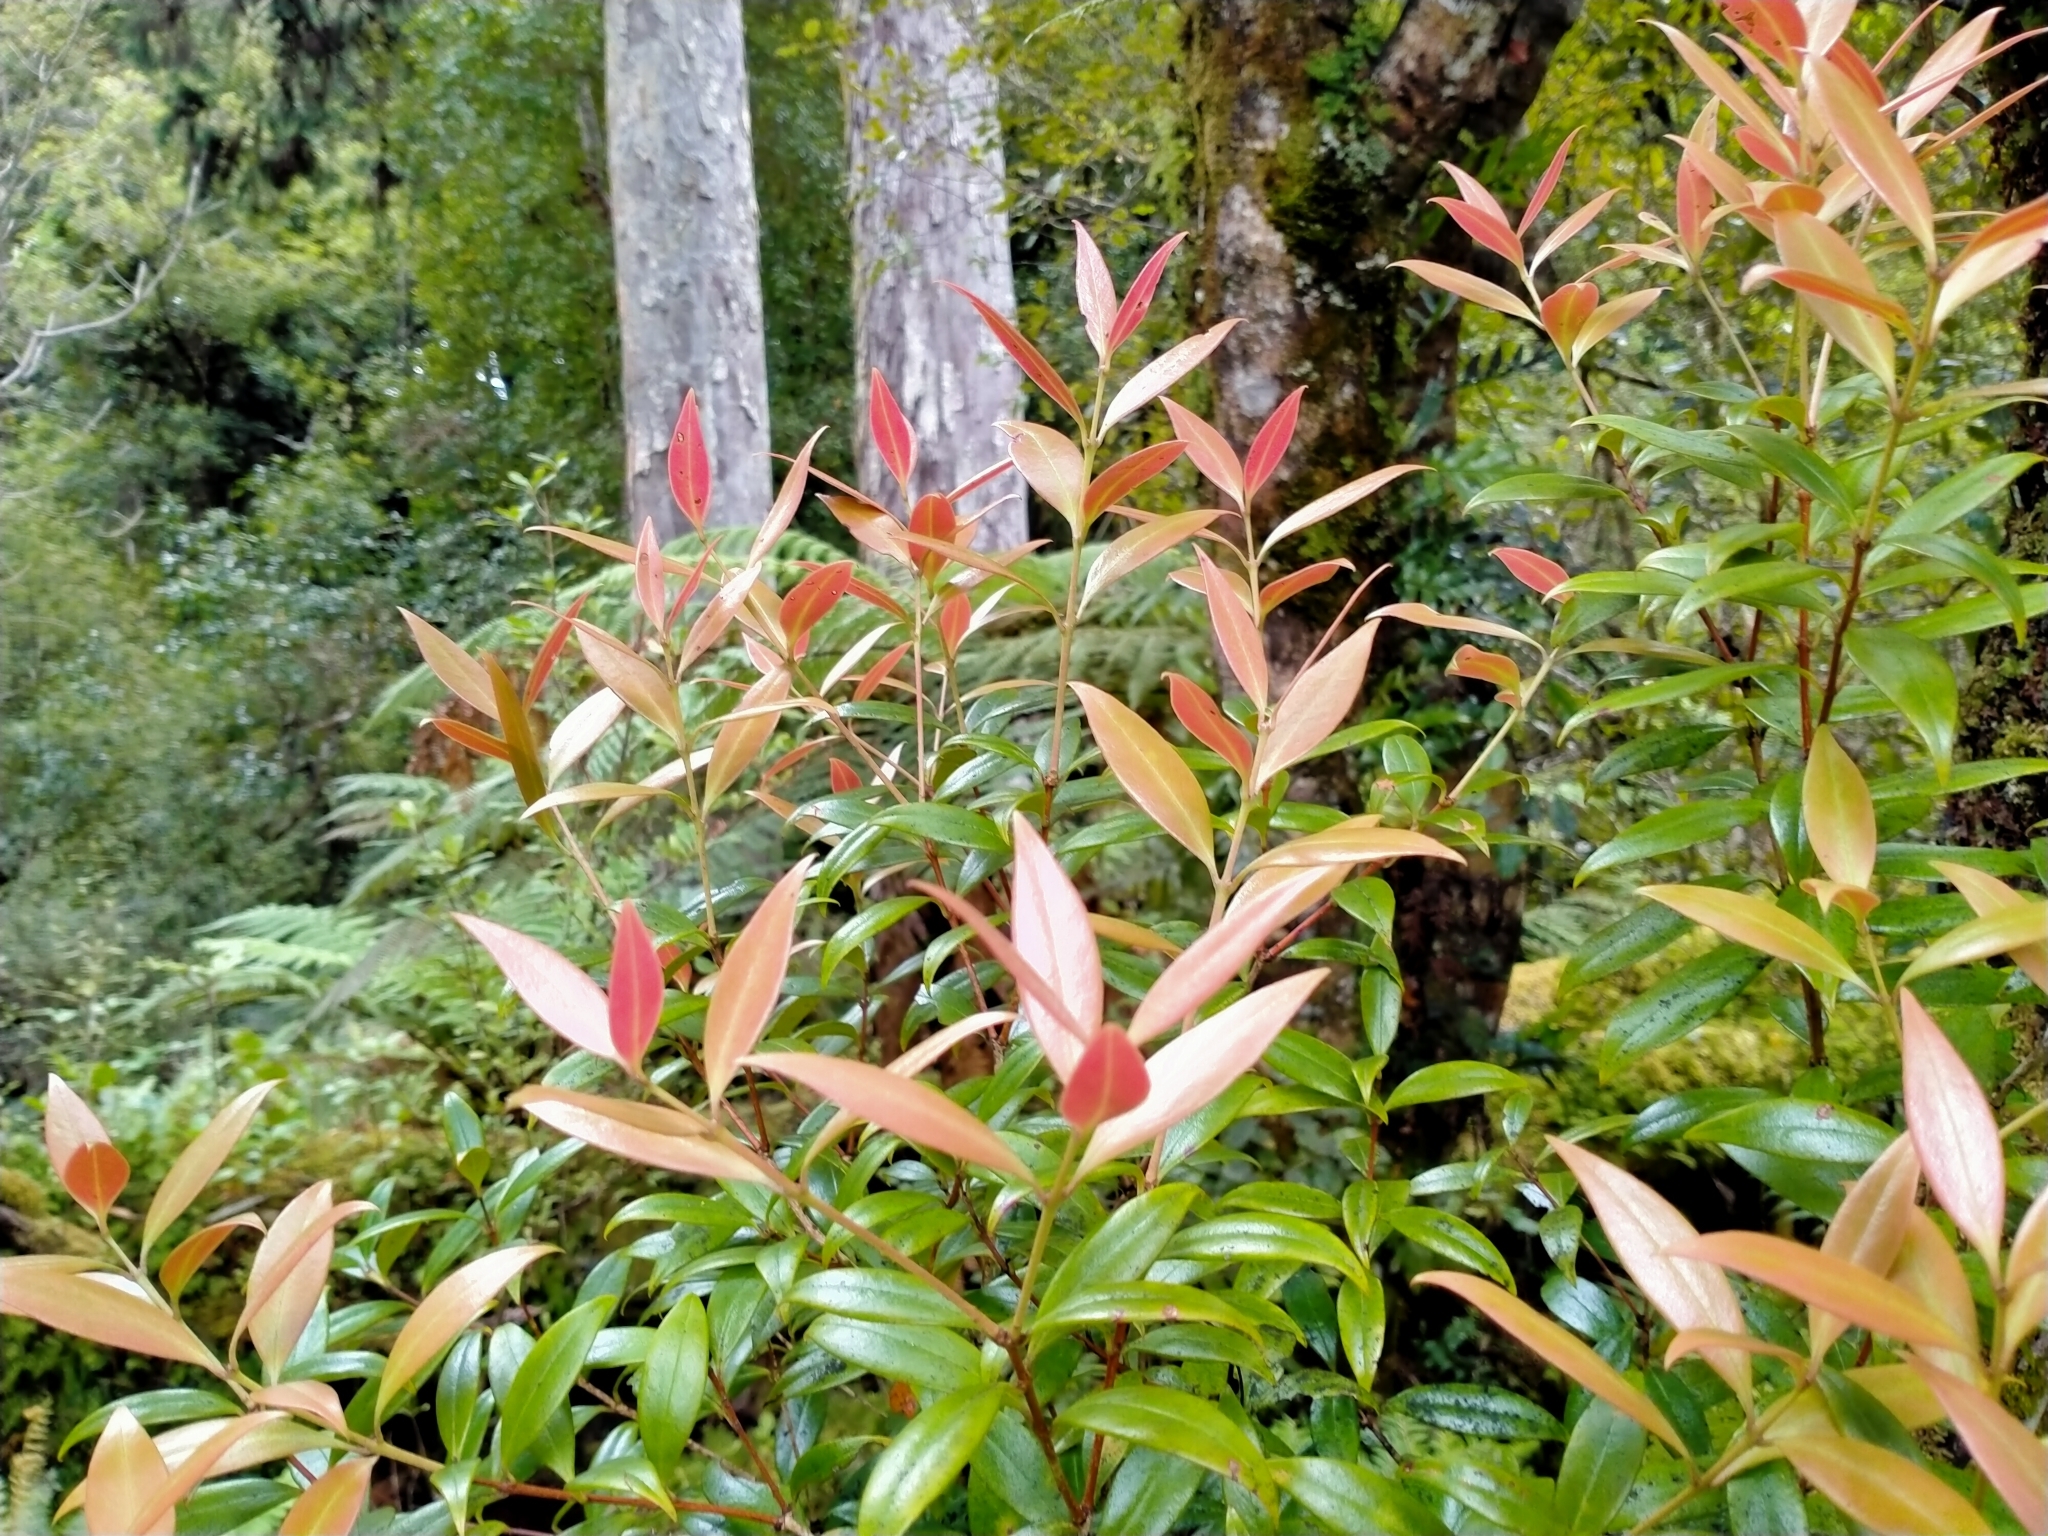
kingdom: Plantae
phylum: Tracheophyta
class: Magnoliopsida
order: Myrtales
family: Myrtaceae
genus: Metrosideros
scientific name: Metrosideros umbellata
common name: Southern rata
